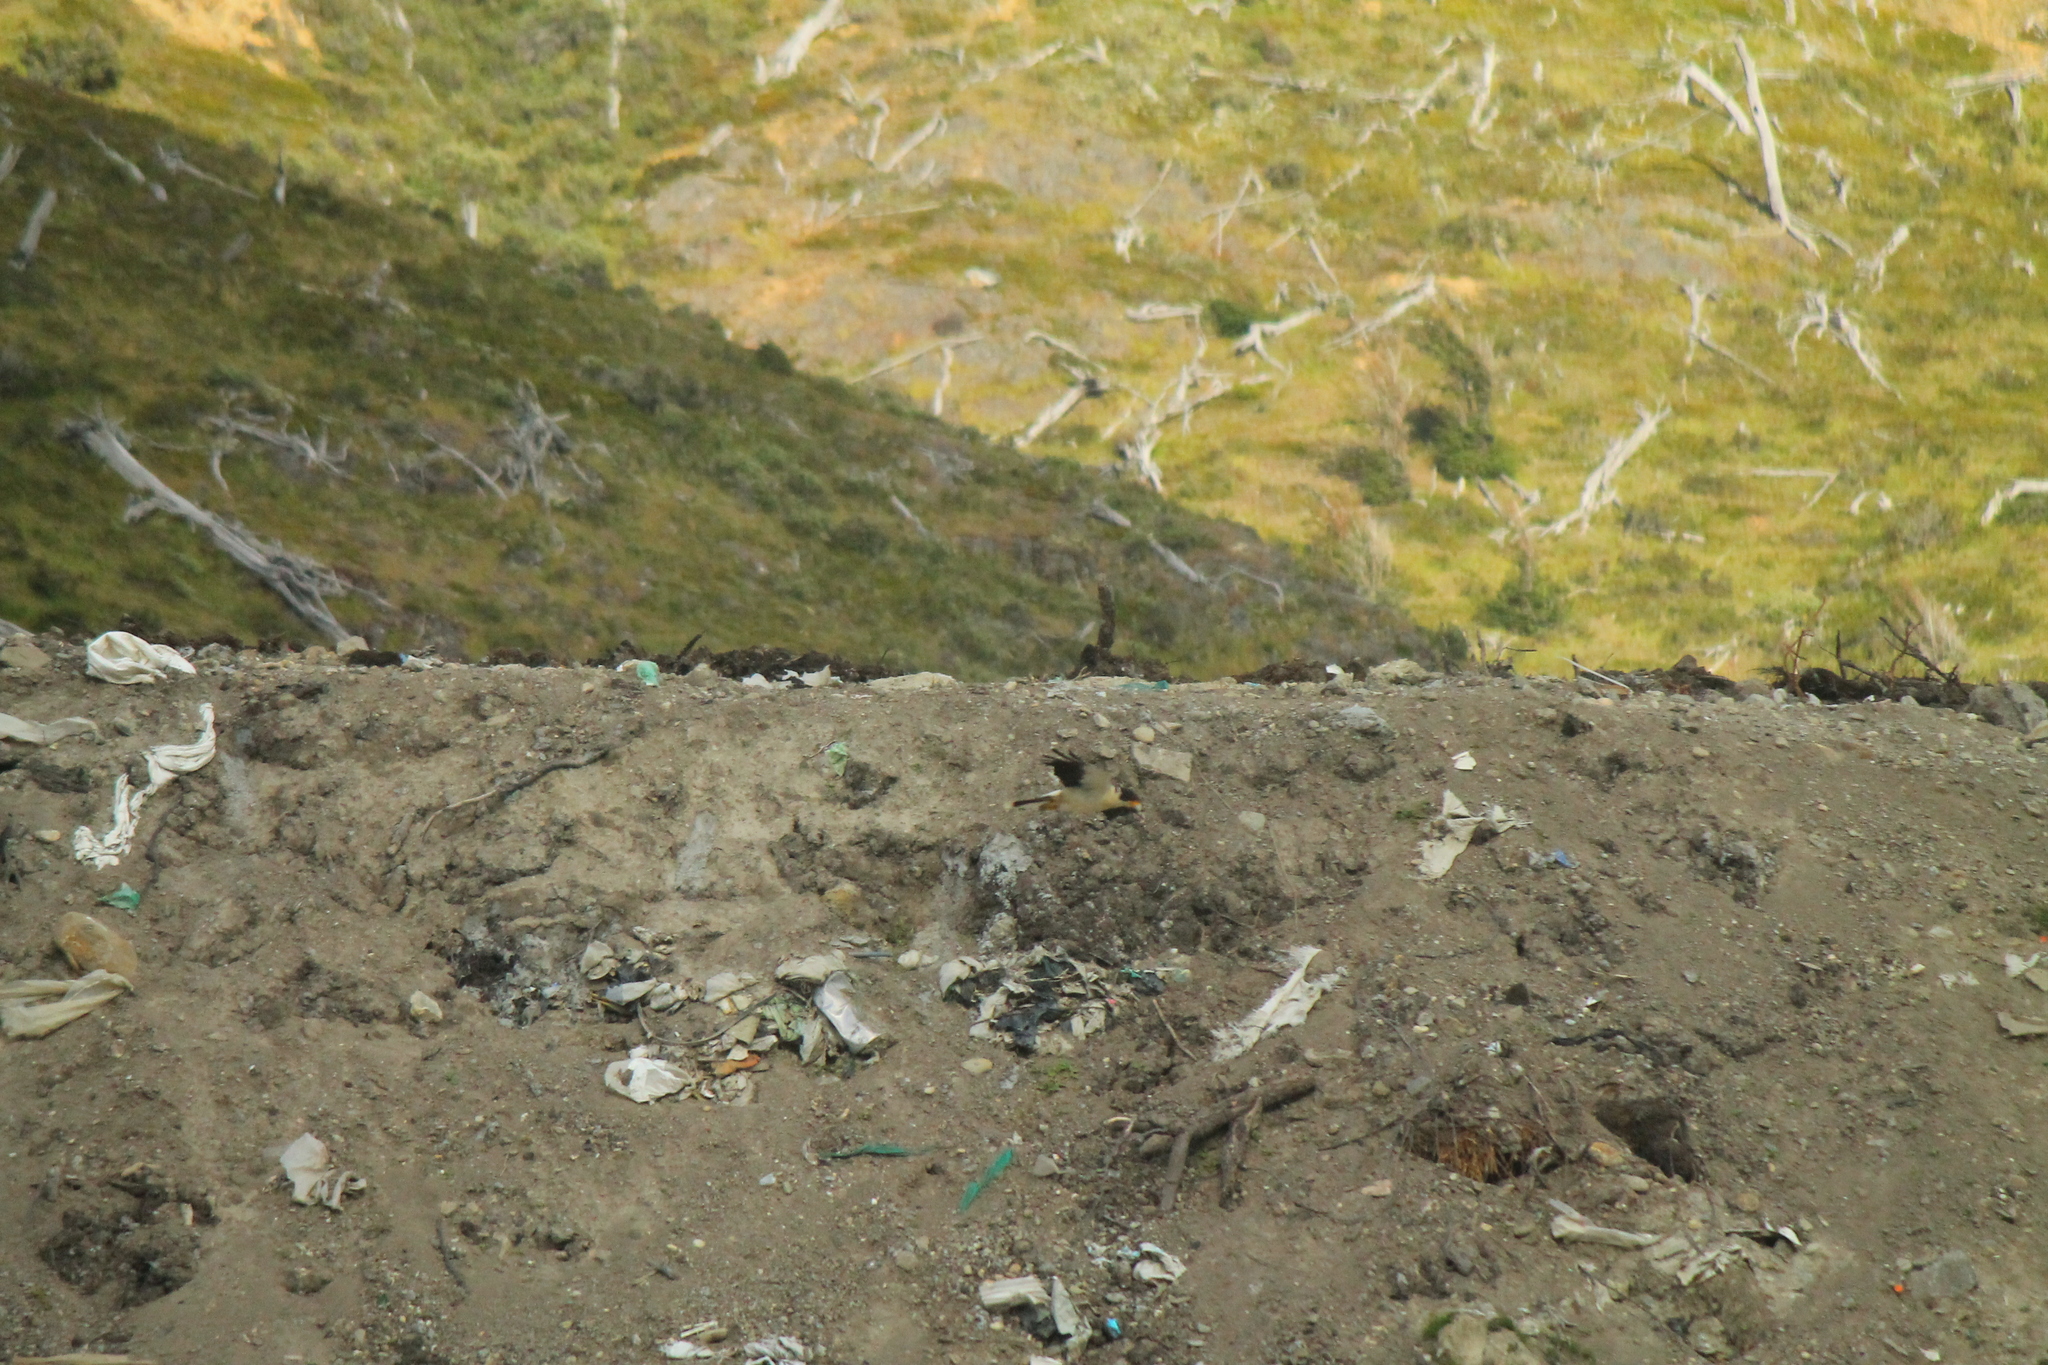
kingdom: Animalia
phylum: Chordata
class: Aves
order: Falconiformes
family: Falconidae
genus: Daptrius
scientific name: Daptrius
